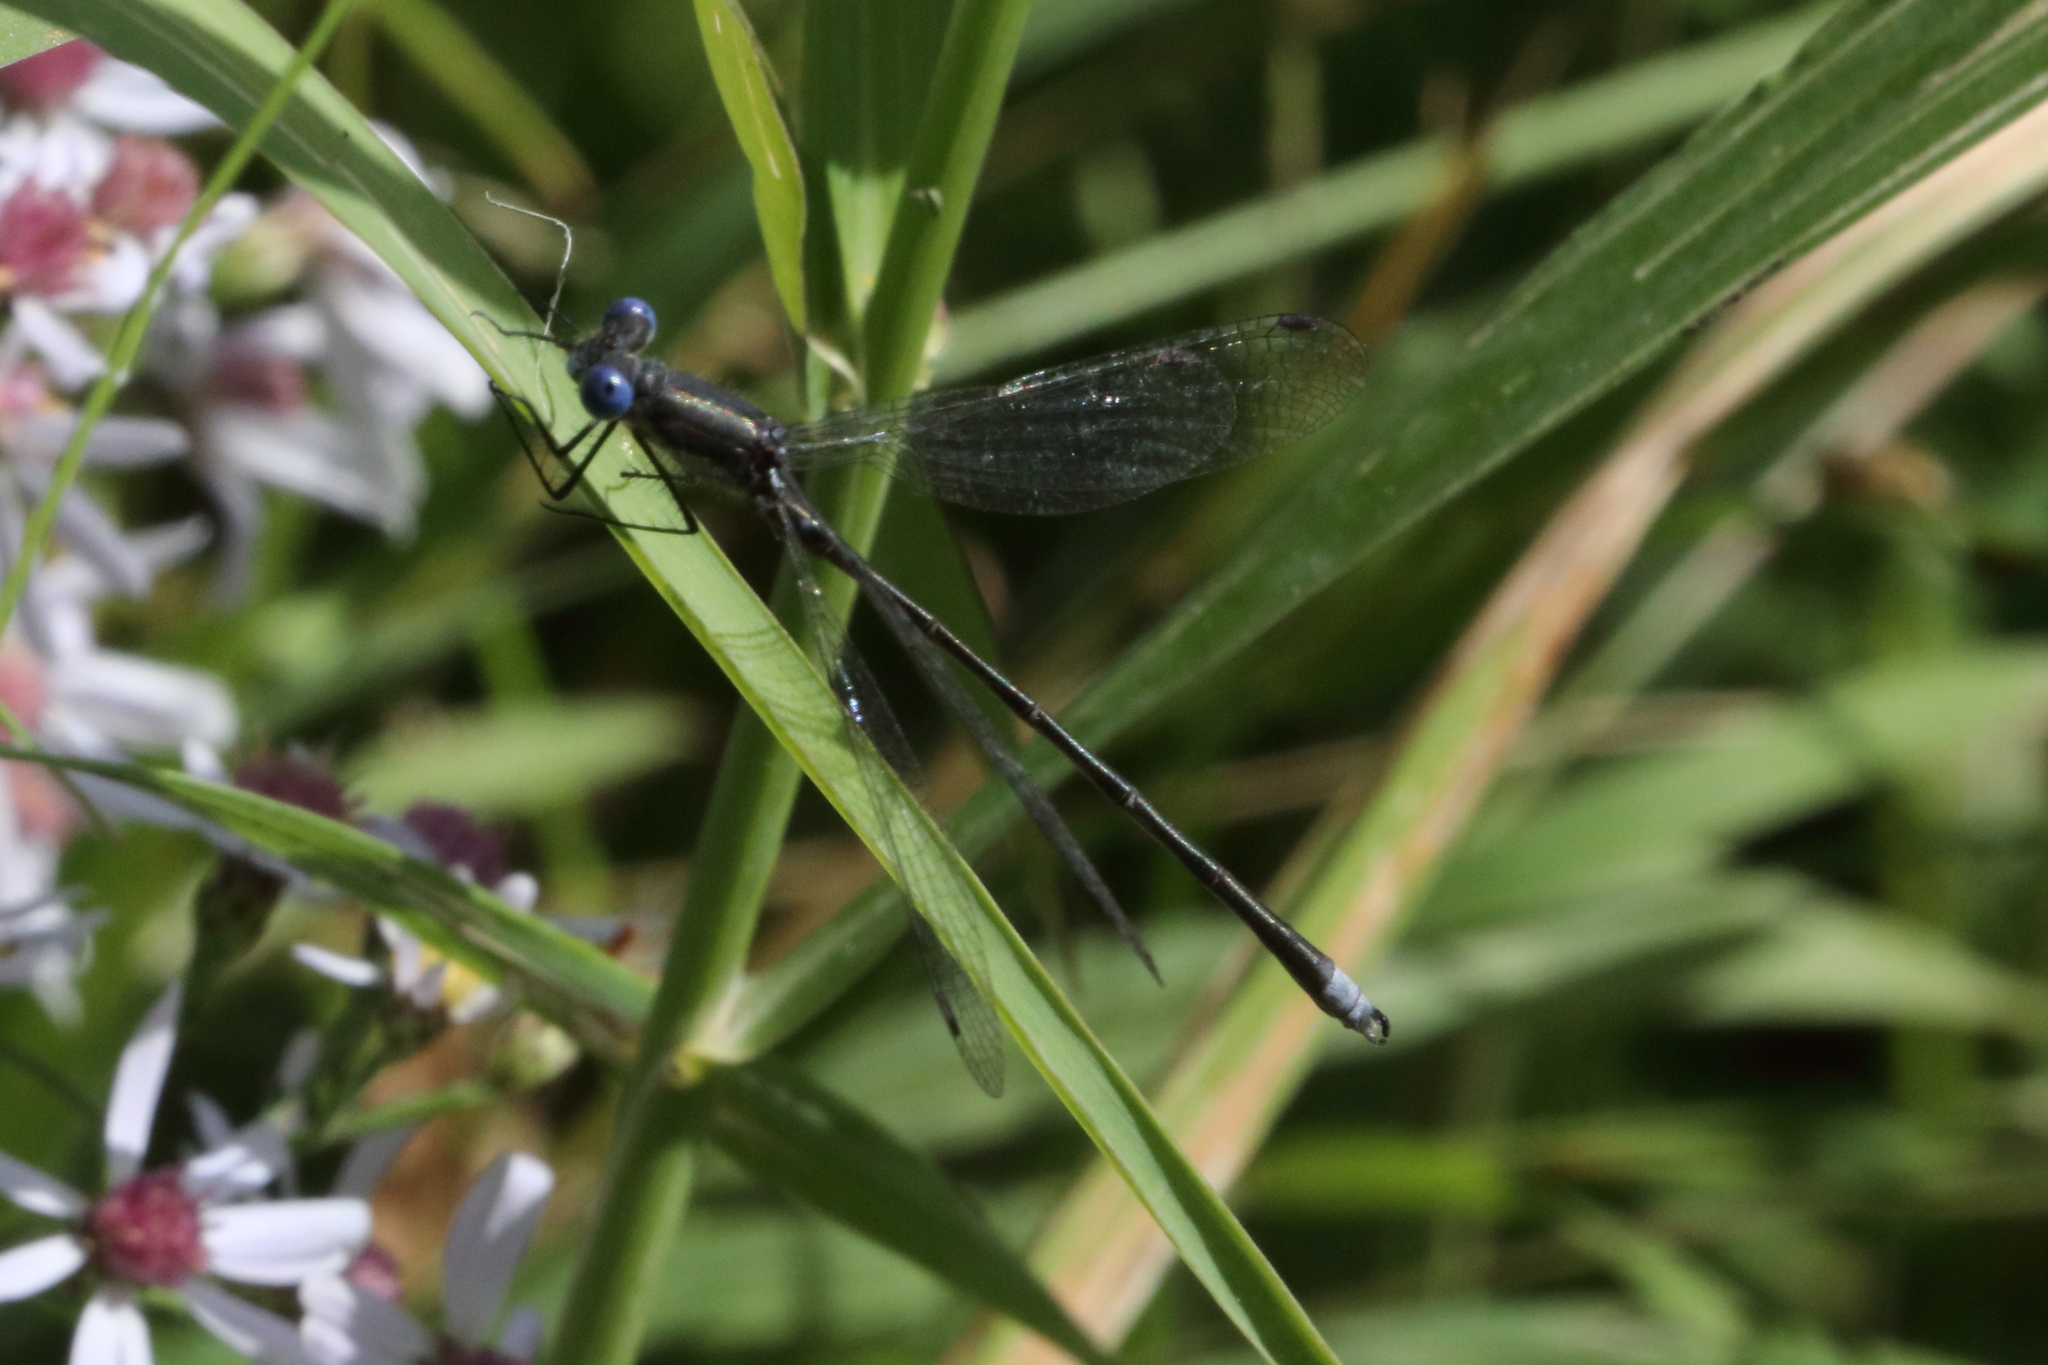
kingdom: Animalia
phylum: Arthropoda
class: Insecta
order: Odonata
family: Lestidae
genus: Lestes
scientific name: Lestes congener
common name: Spotted spreadwing
